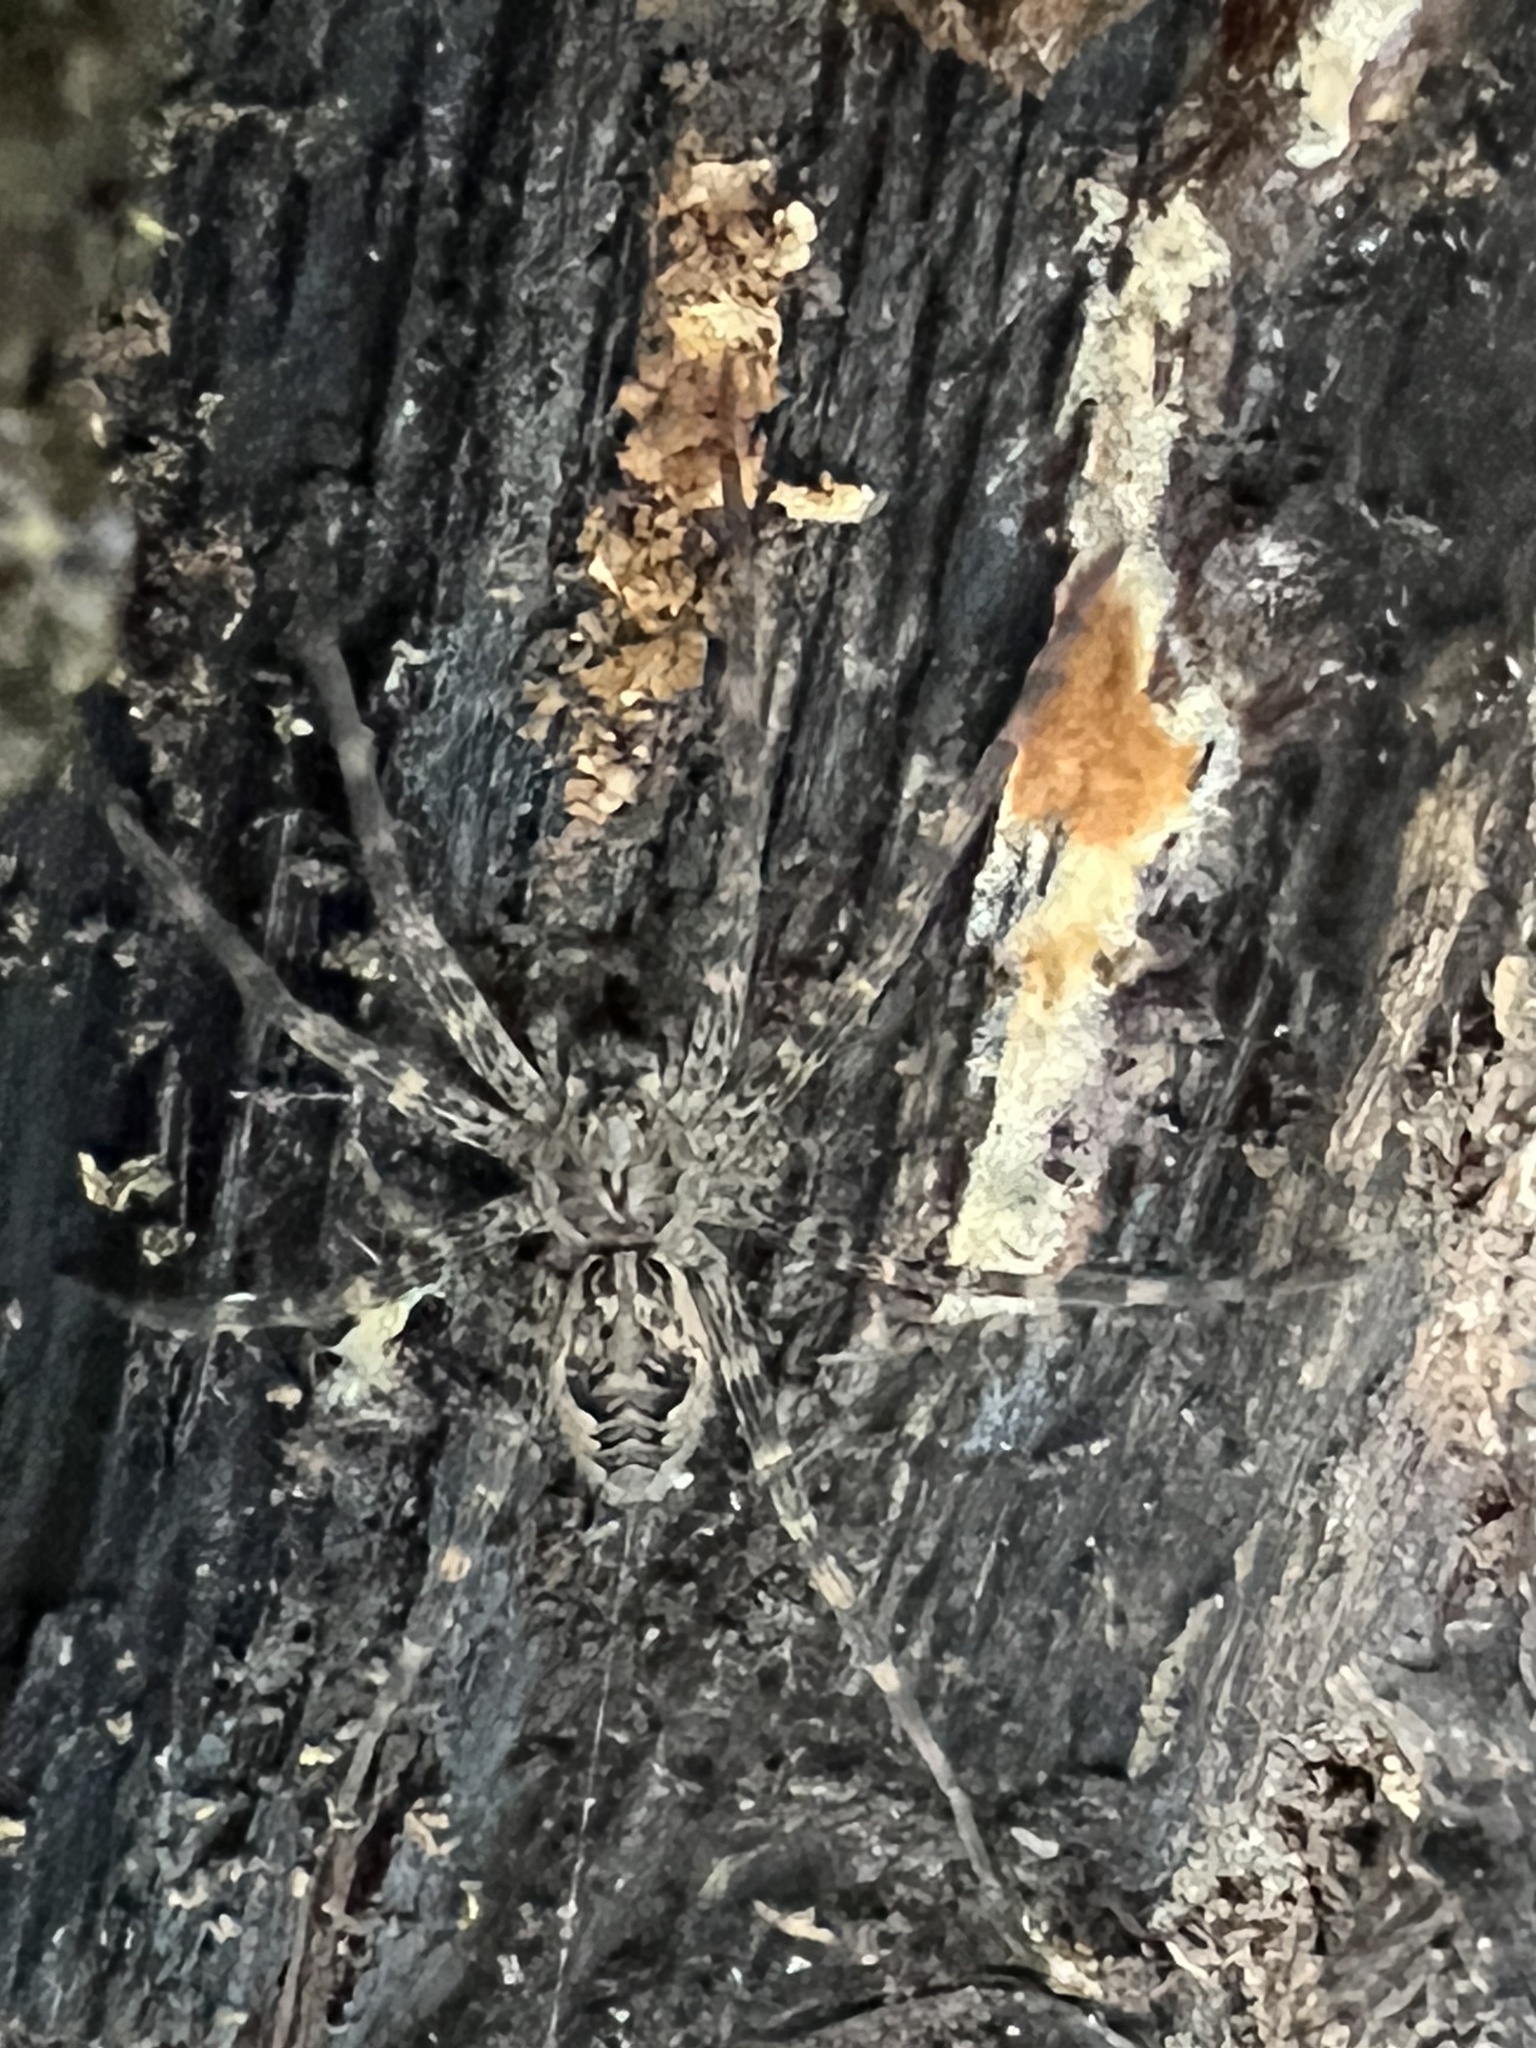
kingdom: Animalia
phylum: Arthropoda
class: Arachnida
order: Araneae
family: Pisauridae
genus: Dolomedes
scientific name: Dolomedes tenebrosus
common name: Dark fishing spider
